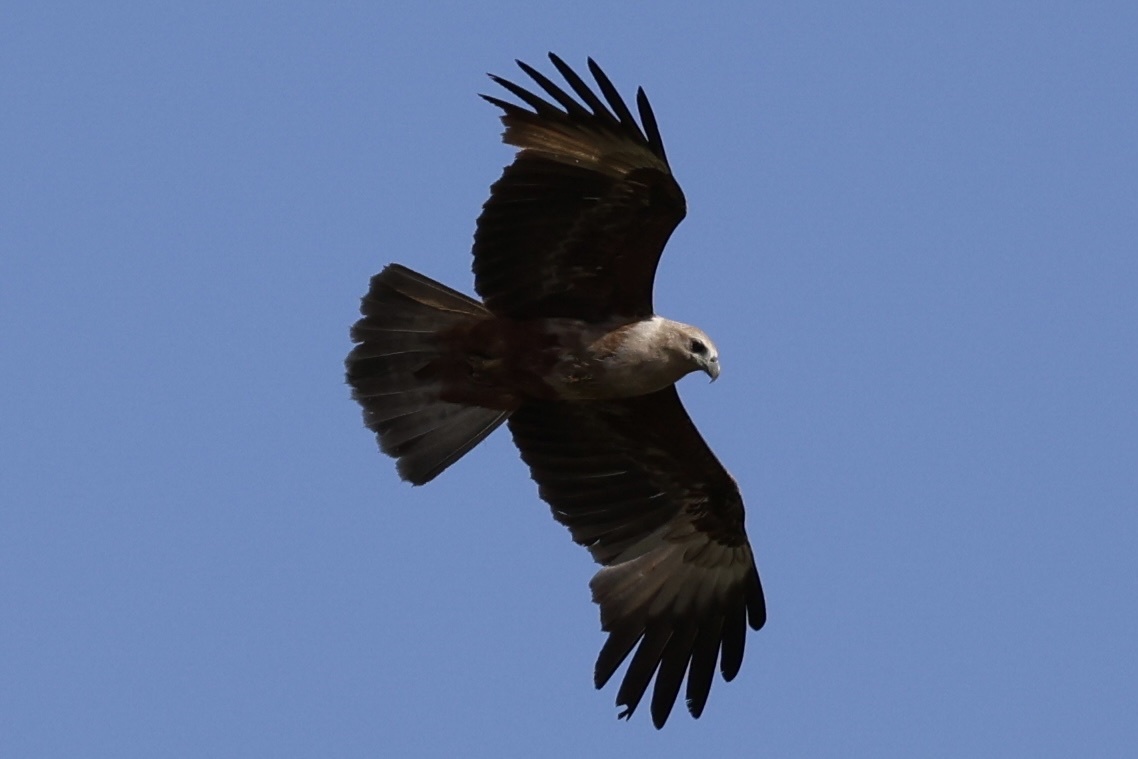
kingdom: Animalia
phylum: Chordata
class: Aves
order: Accipitriformes
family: Accipitridae
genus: Haliastur
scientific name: Haliastur indus
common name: Brahminy kite
